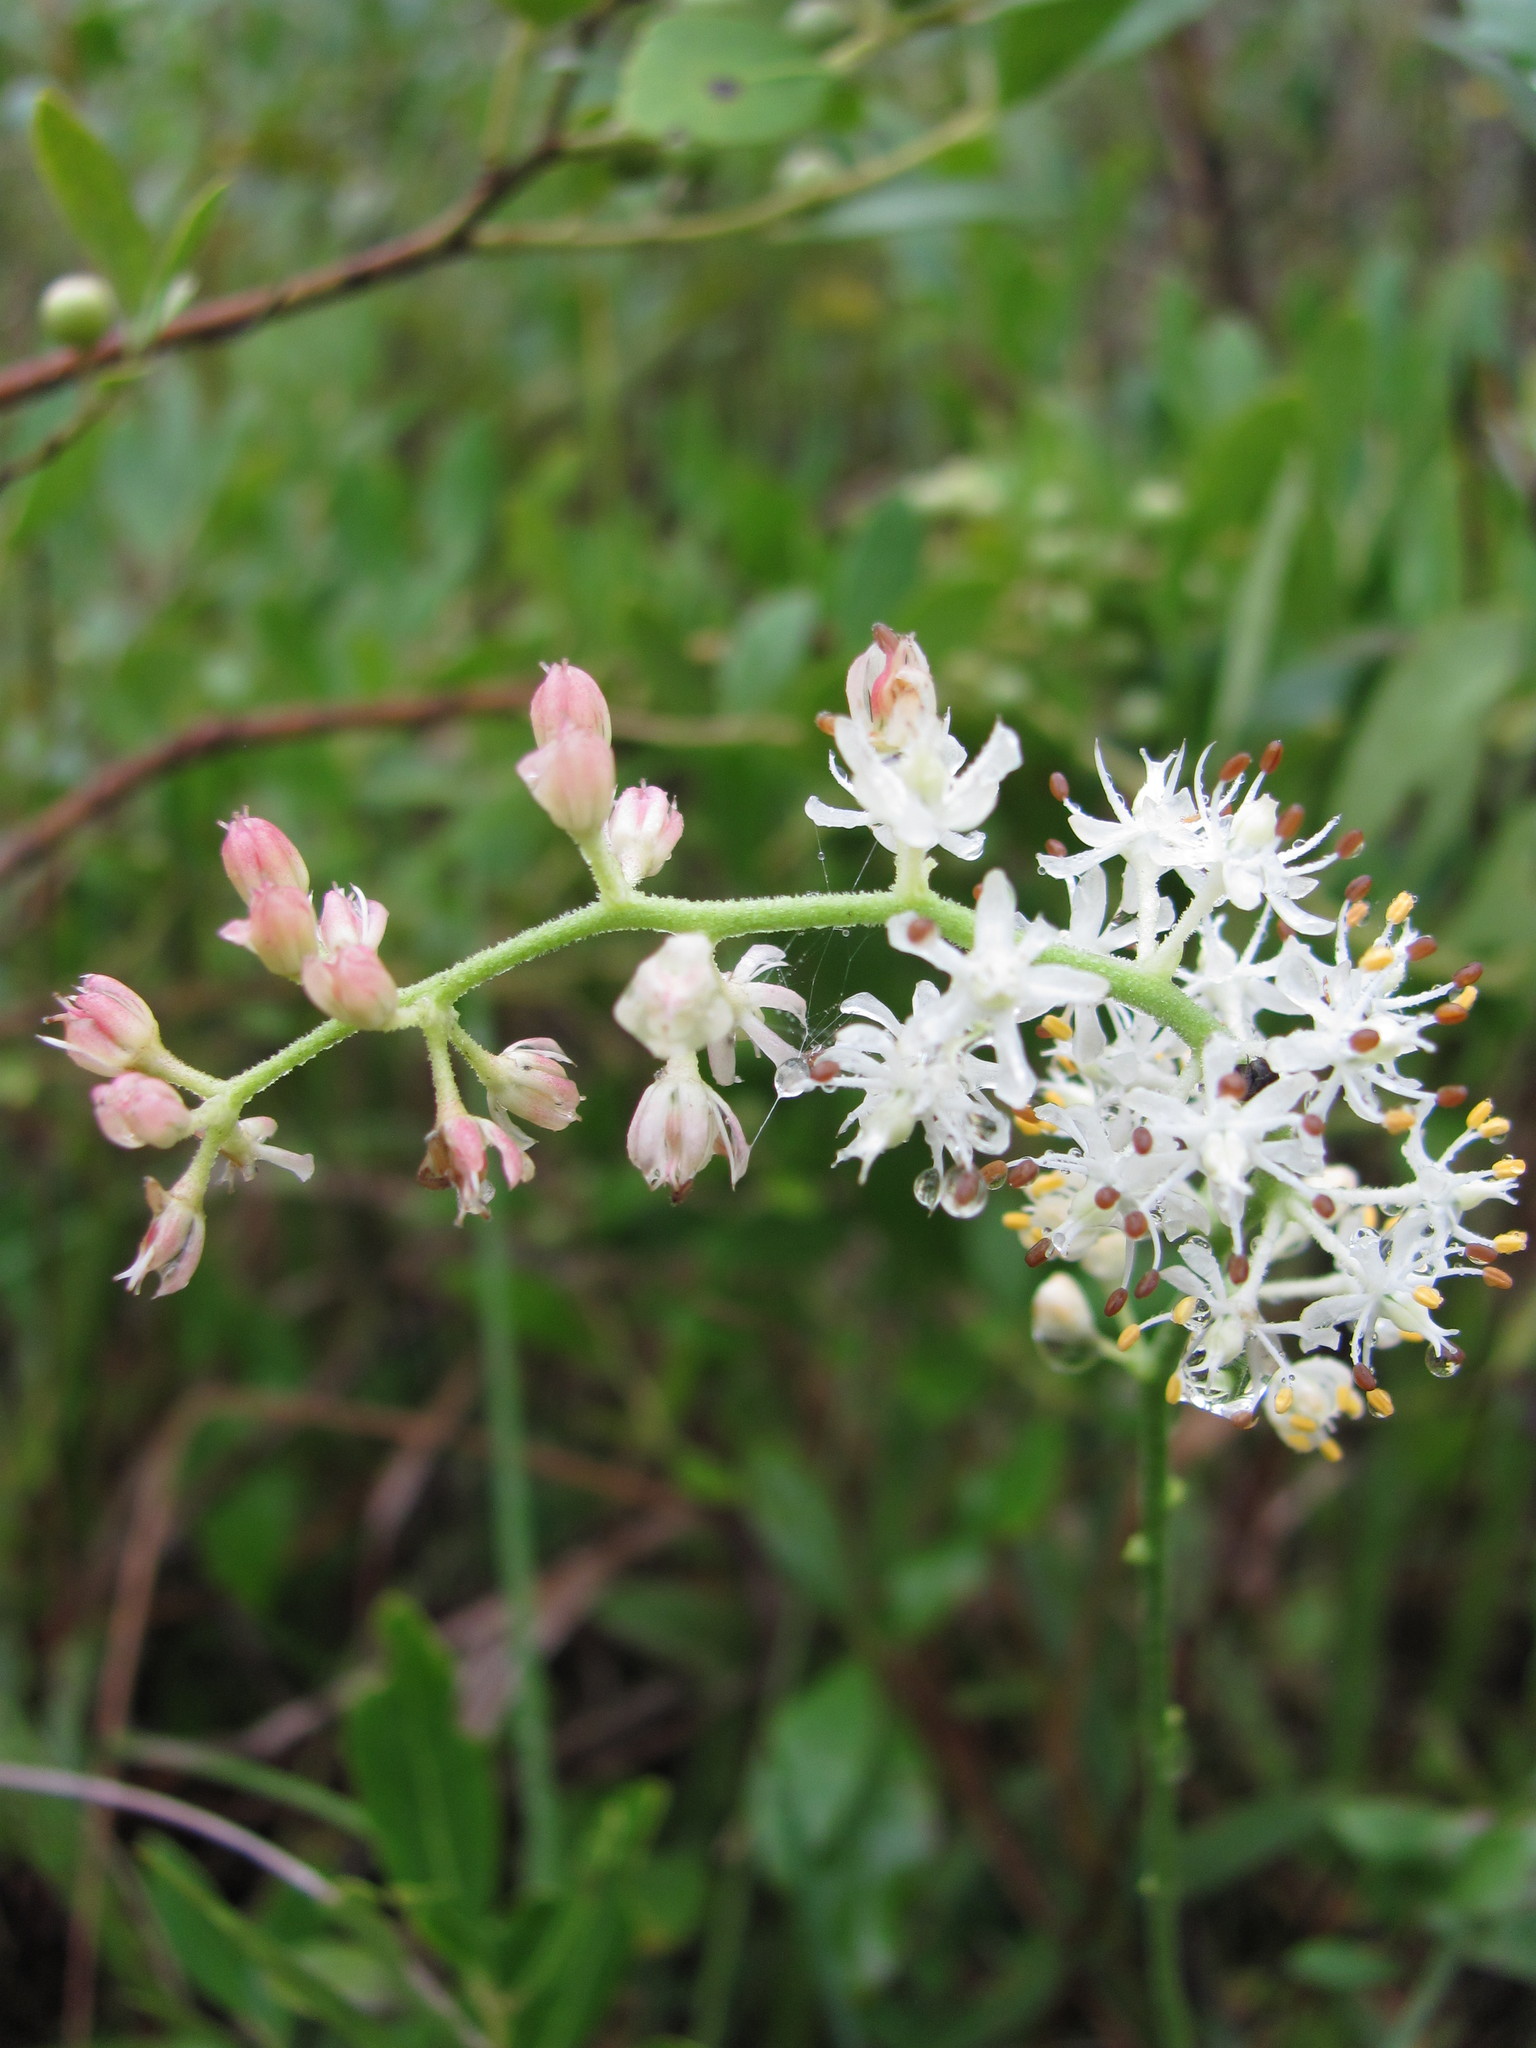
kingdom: Plantae
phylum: Tracheophyta
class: Liliopsida
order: Alismatales
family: Tofieldiaceae
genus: Triantha
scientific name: Triantha racemosa
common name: Coastal false asphodel
